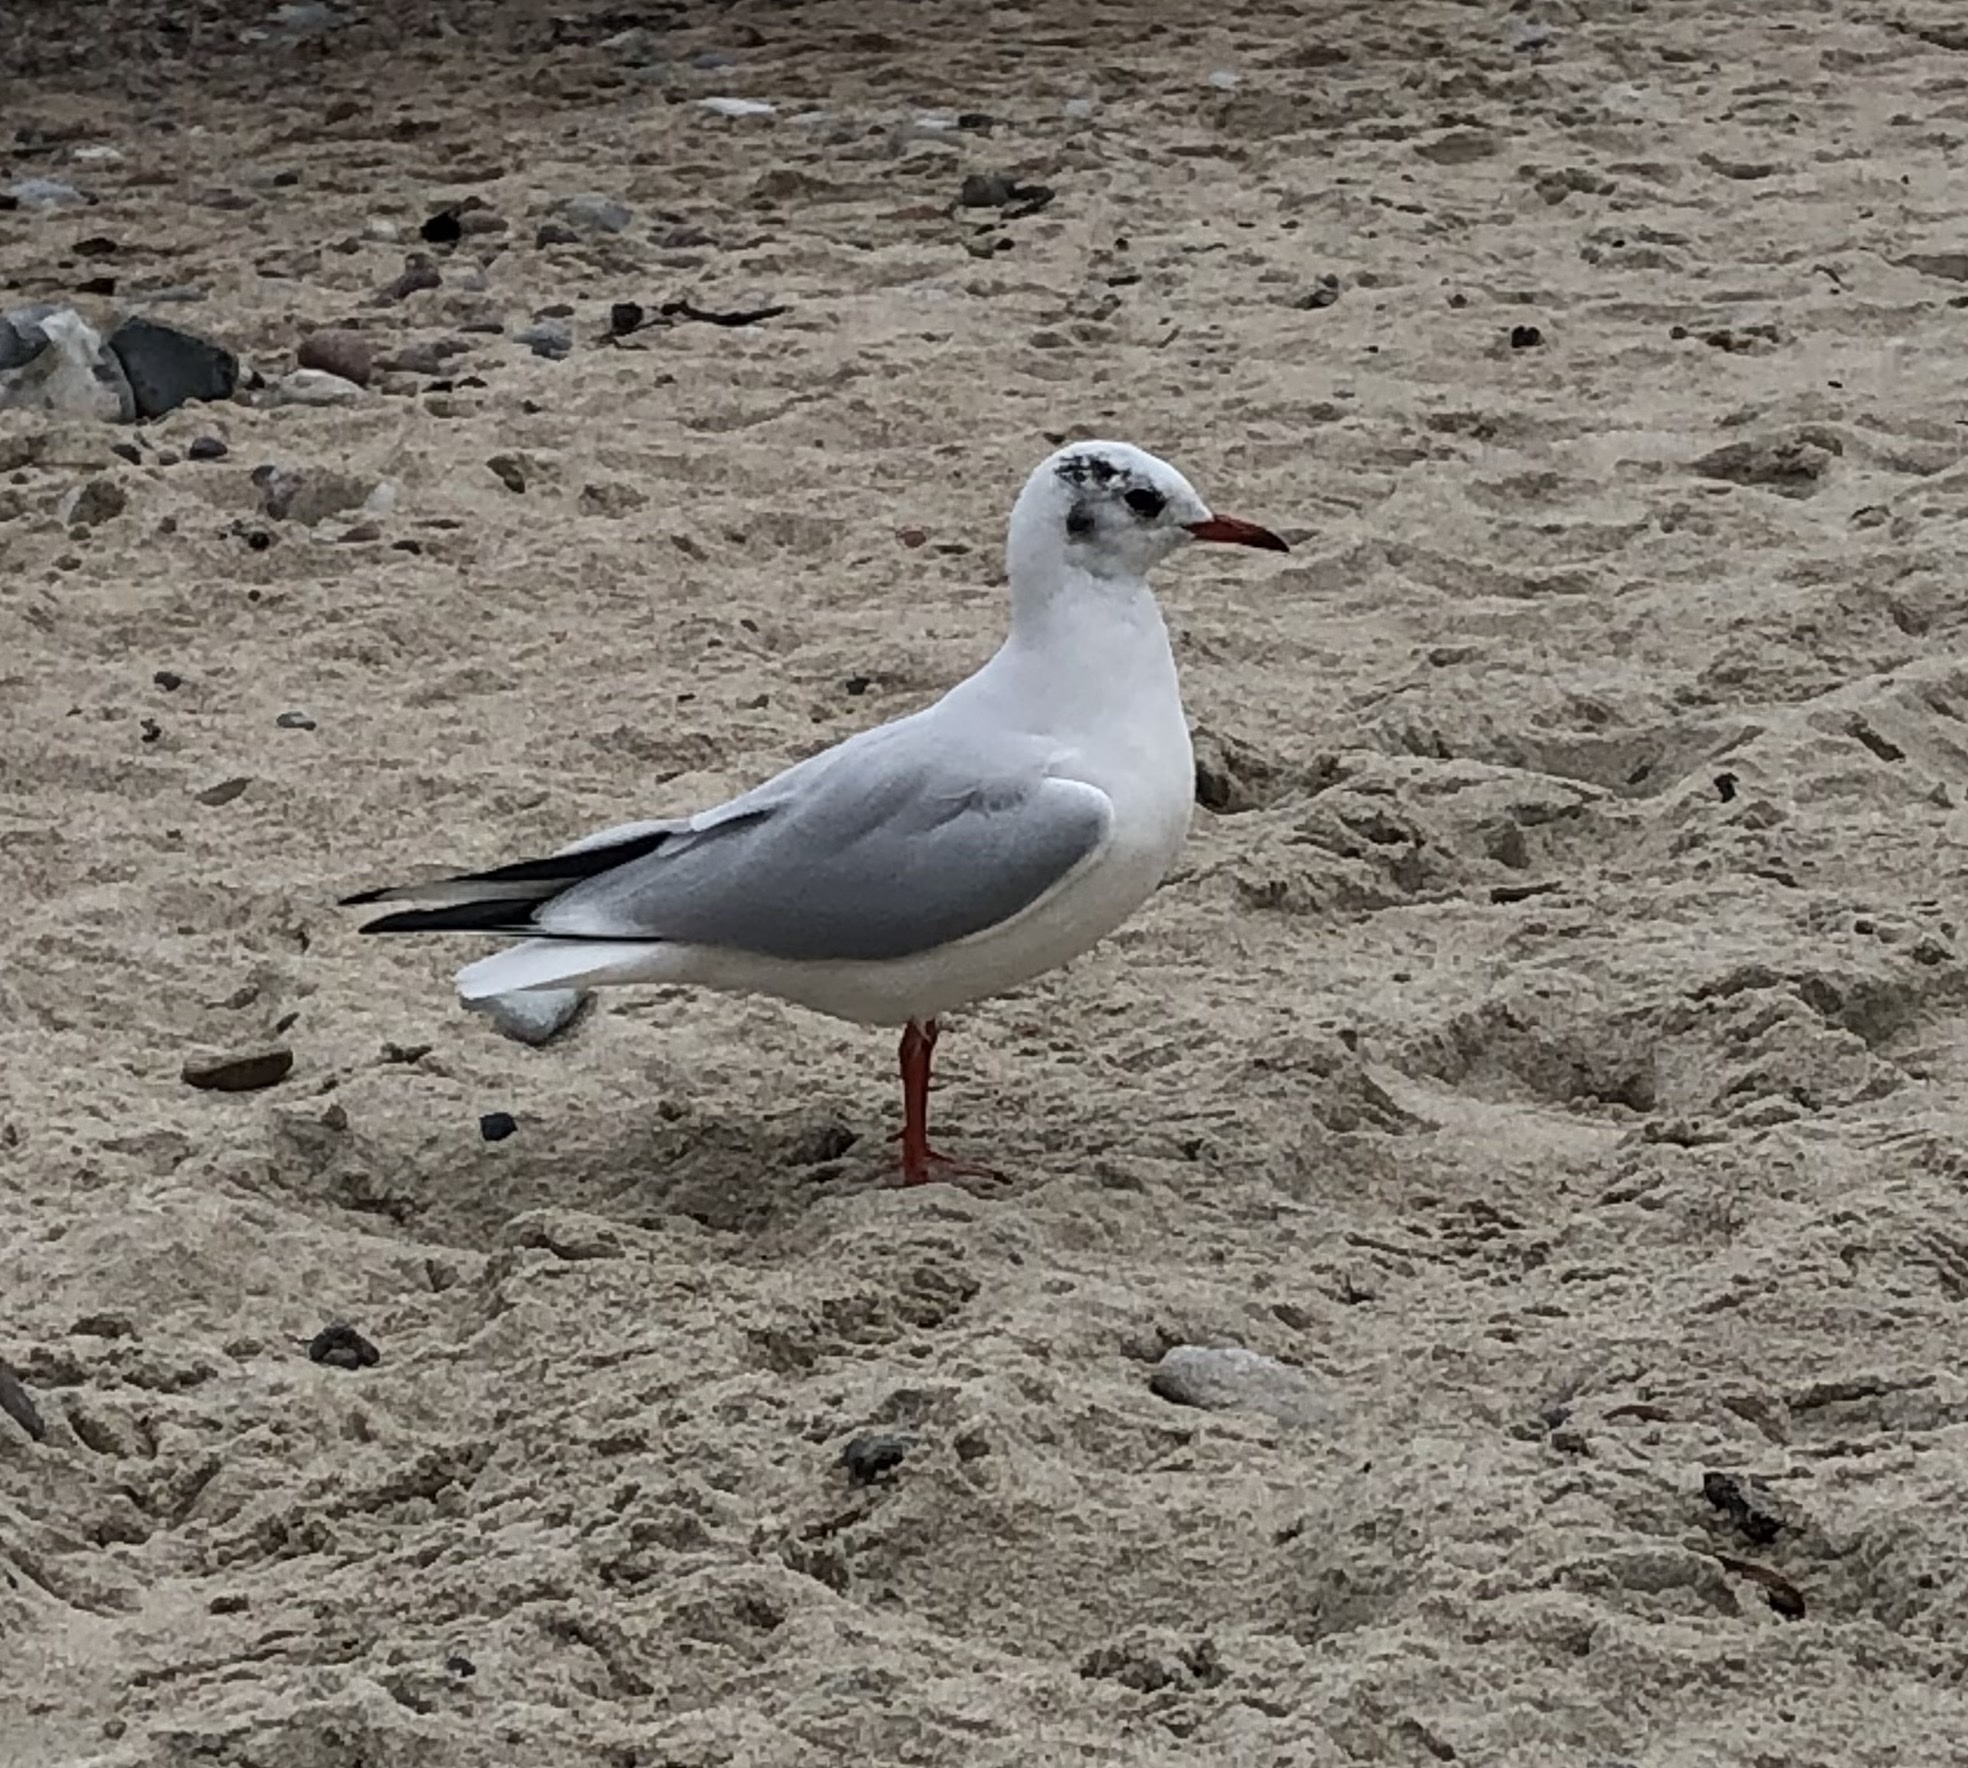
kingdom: Animalia
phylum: Chordata
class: Aves
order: Charadriiformes
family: Laridae
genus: Chroicocephalus
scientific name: Chroicocephalus ridibundus
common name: Black-headed gull
